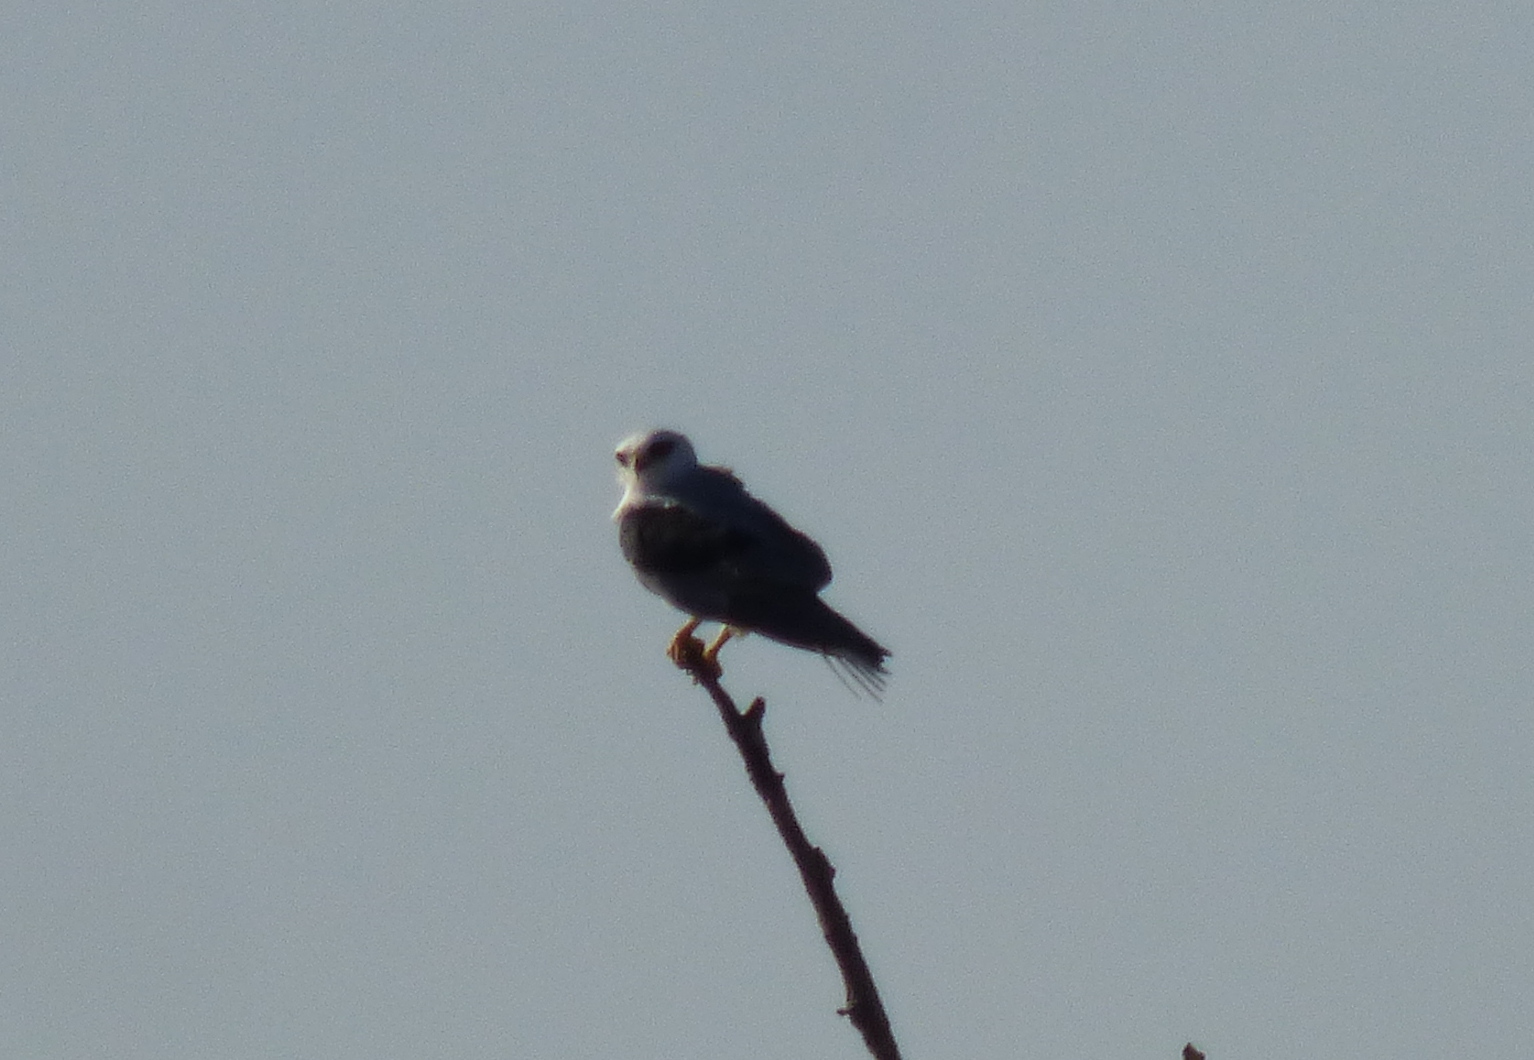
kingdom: Animalia
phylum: Chordata
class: Aves
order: Accipitriformes
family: Accipitridae
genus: Elanus
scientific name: Elanus leucurus
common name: White-tailed kite
